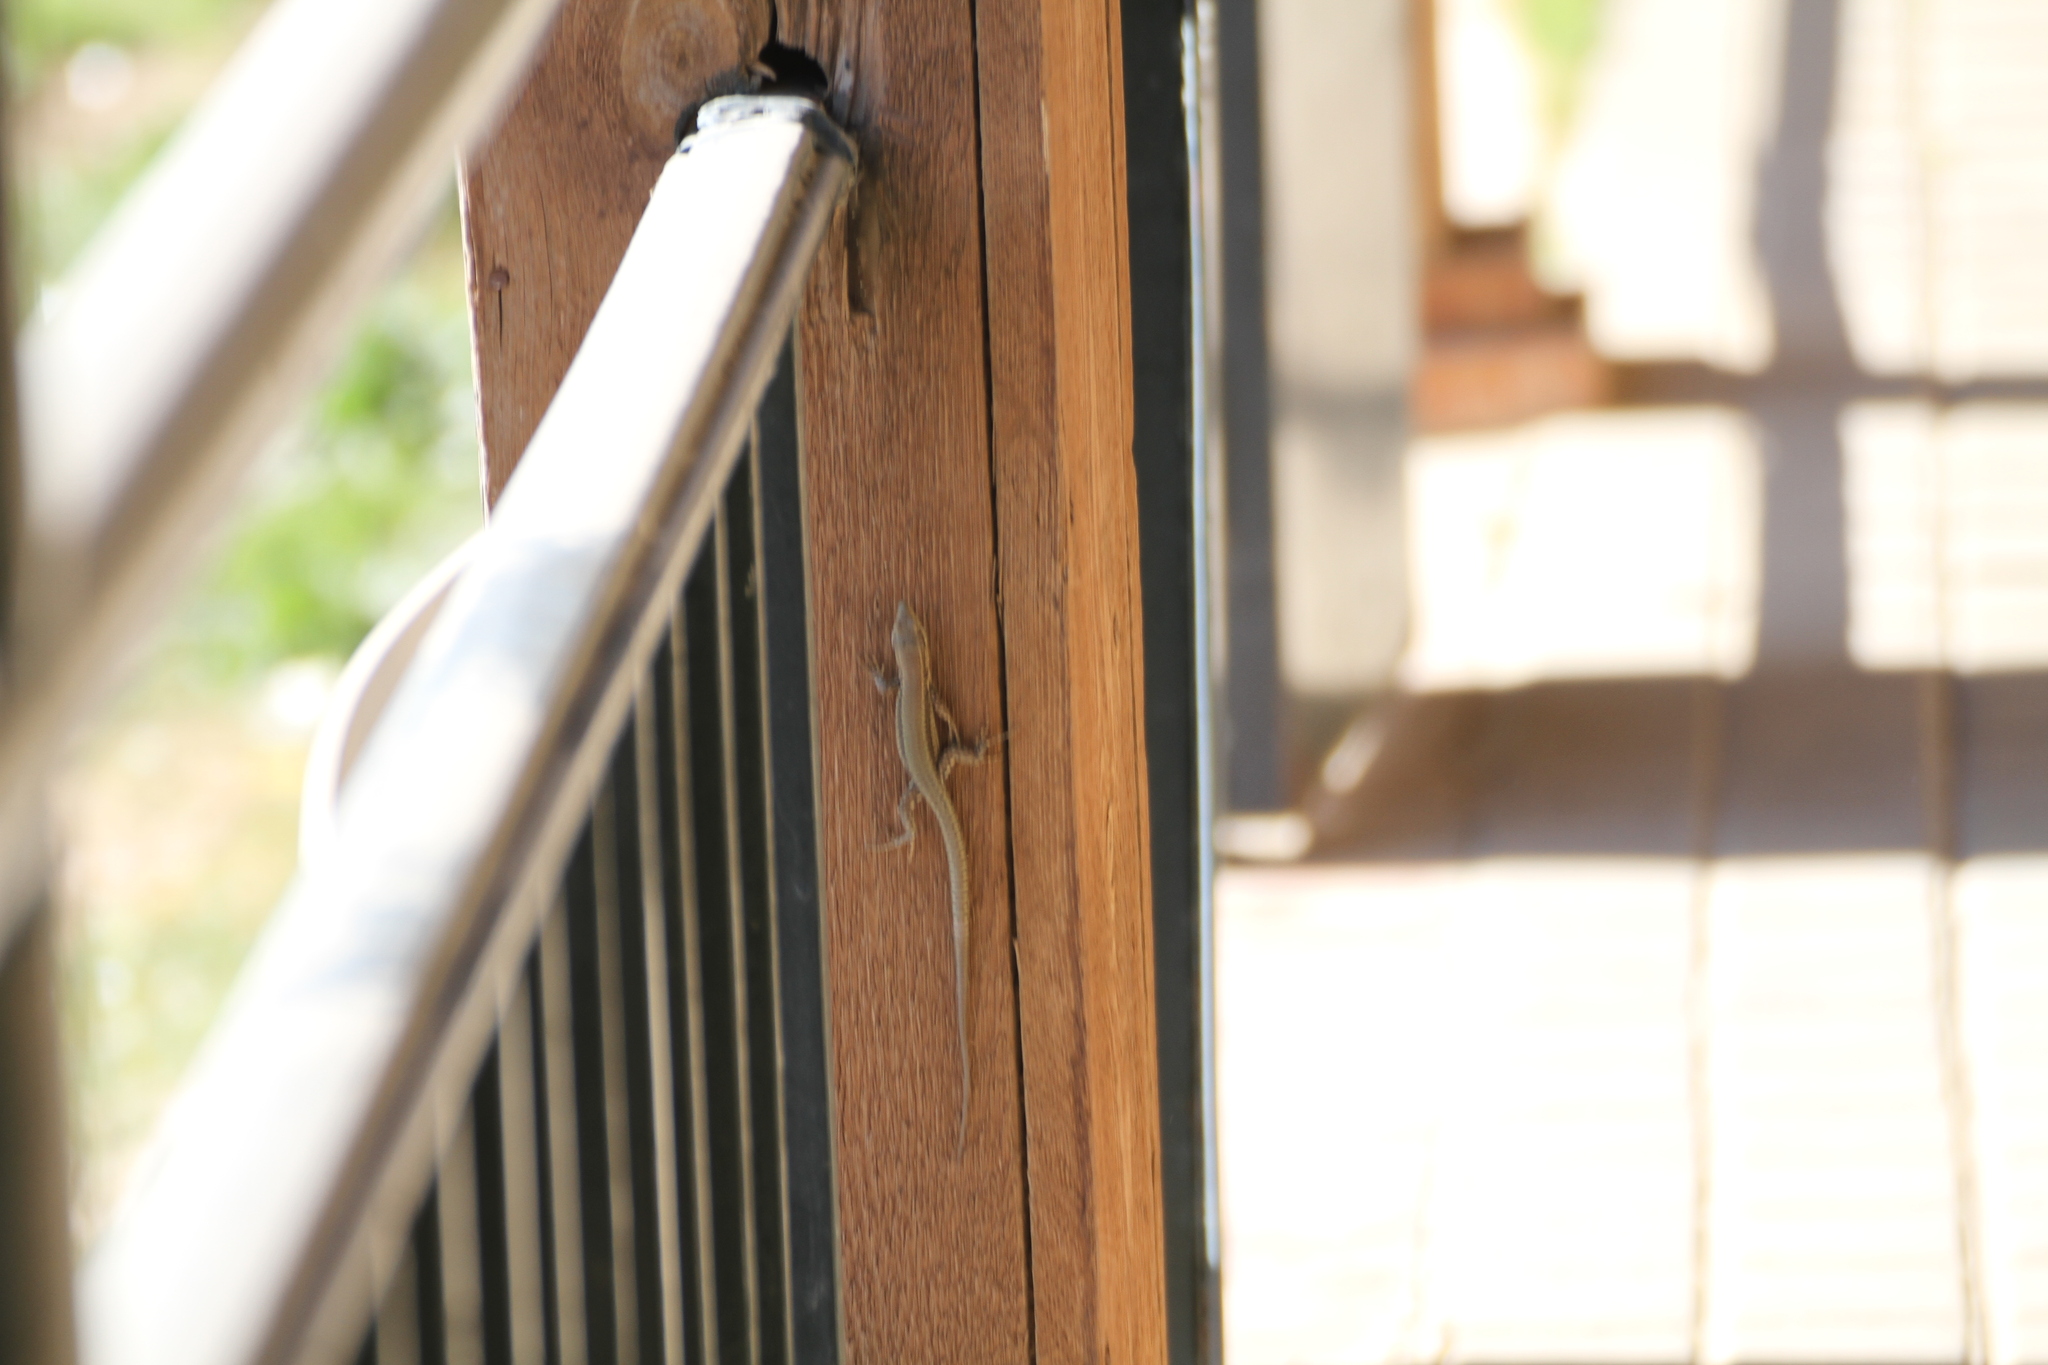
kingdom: Animalia
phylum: Chordata
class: Squamata
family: Lacertidae
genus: Podarcis
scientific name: Podarcis vaucheri
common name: Vaucher's wall lizard
